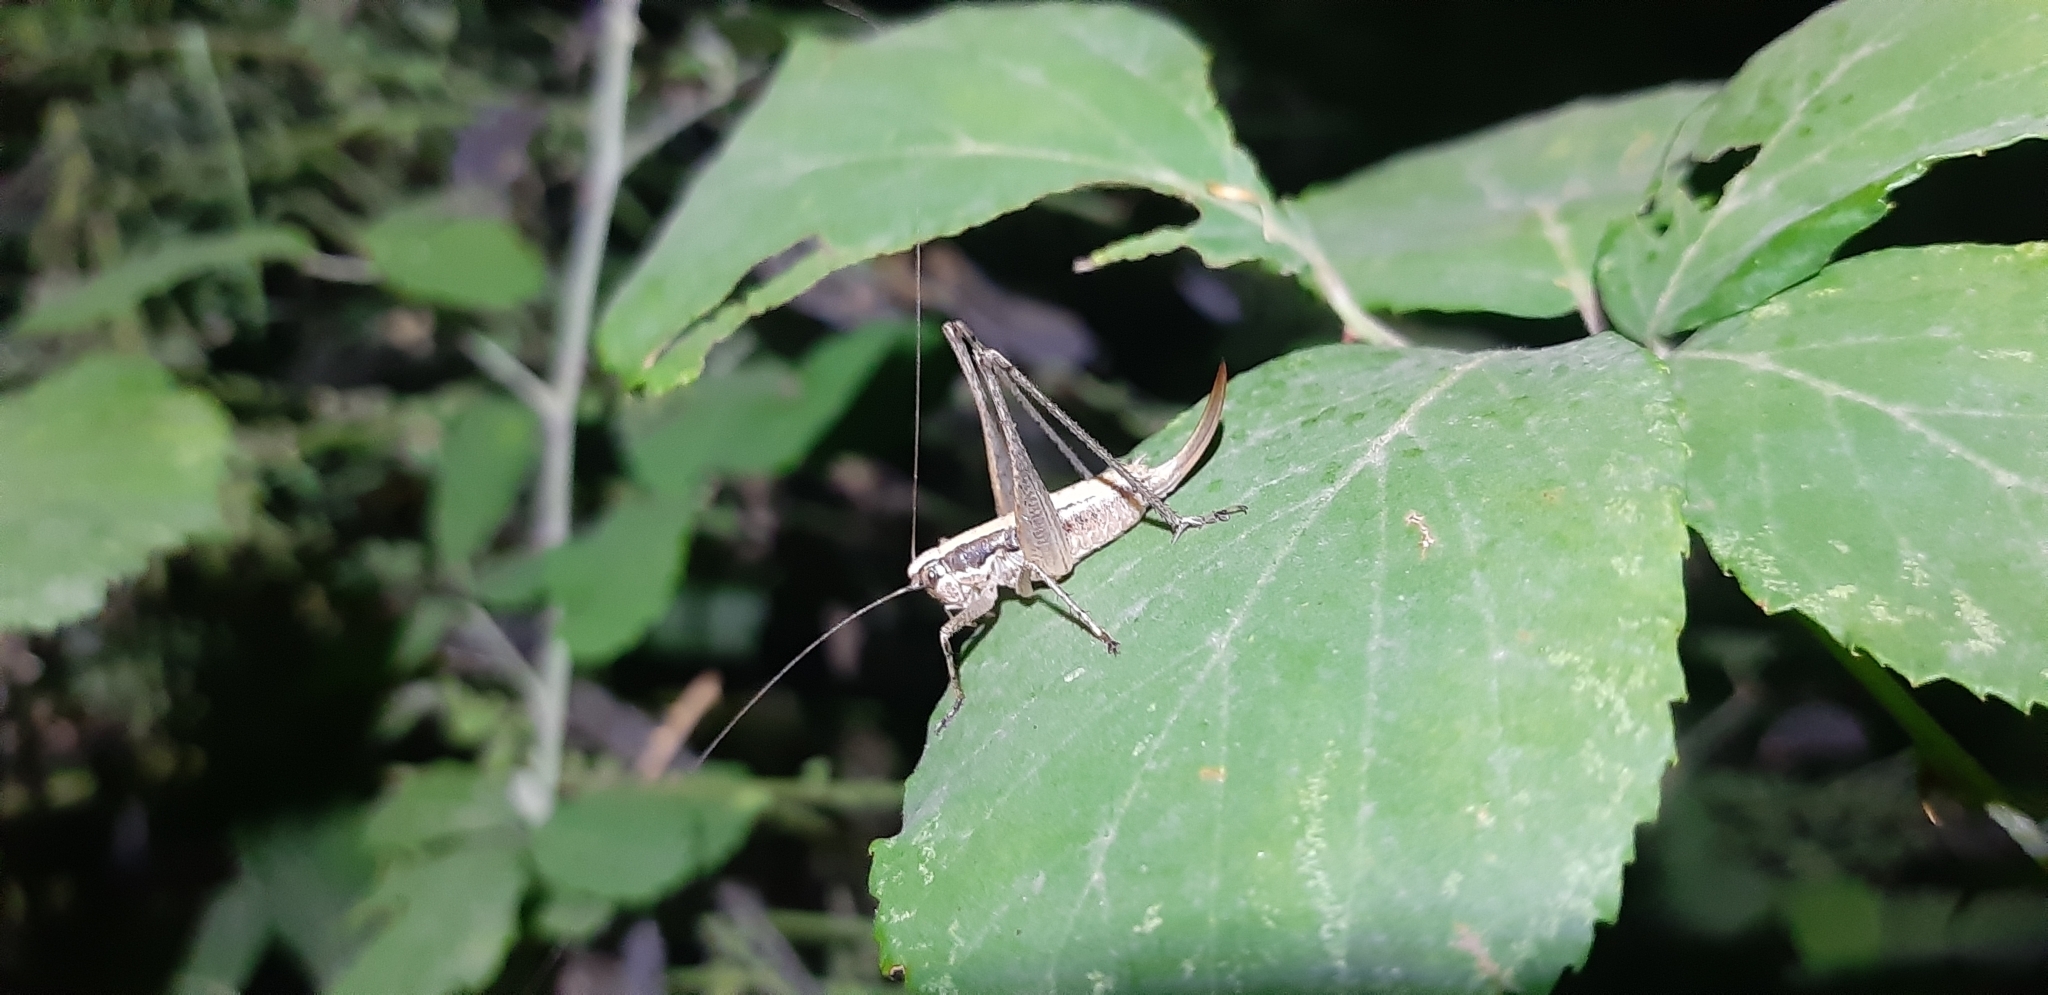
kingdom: Animalia
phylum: Arthropoda
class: Insecta
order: Orthoptera
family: Tettigoniidae
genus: Yersinella
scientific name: Yersinella raymondii
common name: Raymond's bush-cricket
